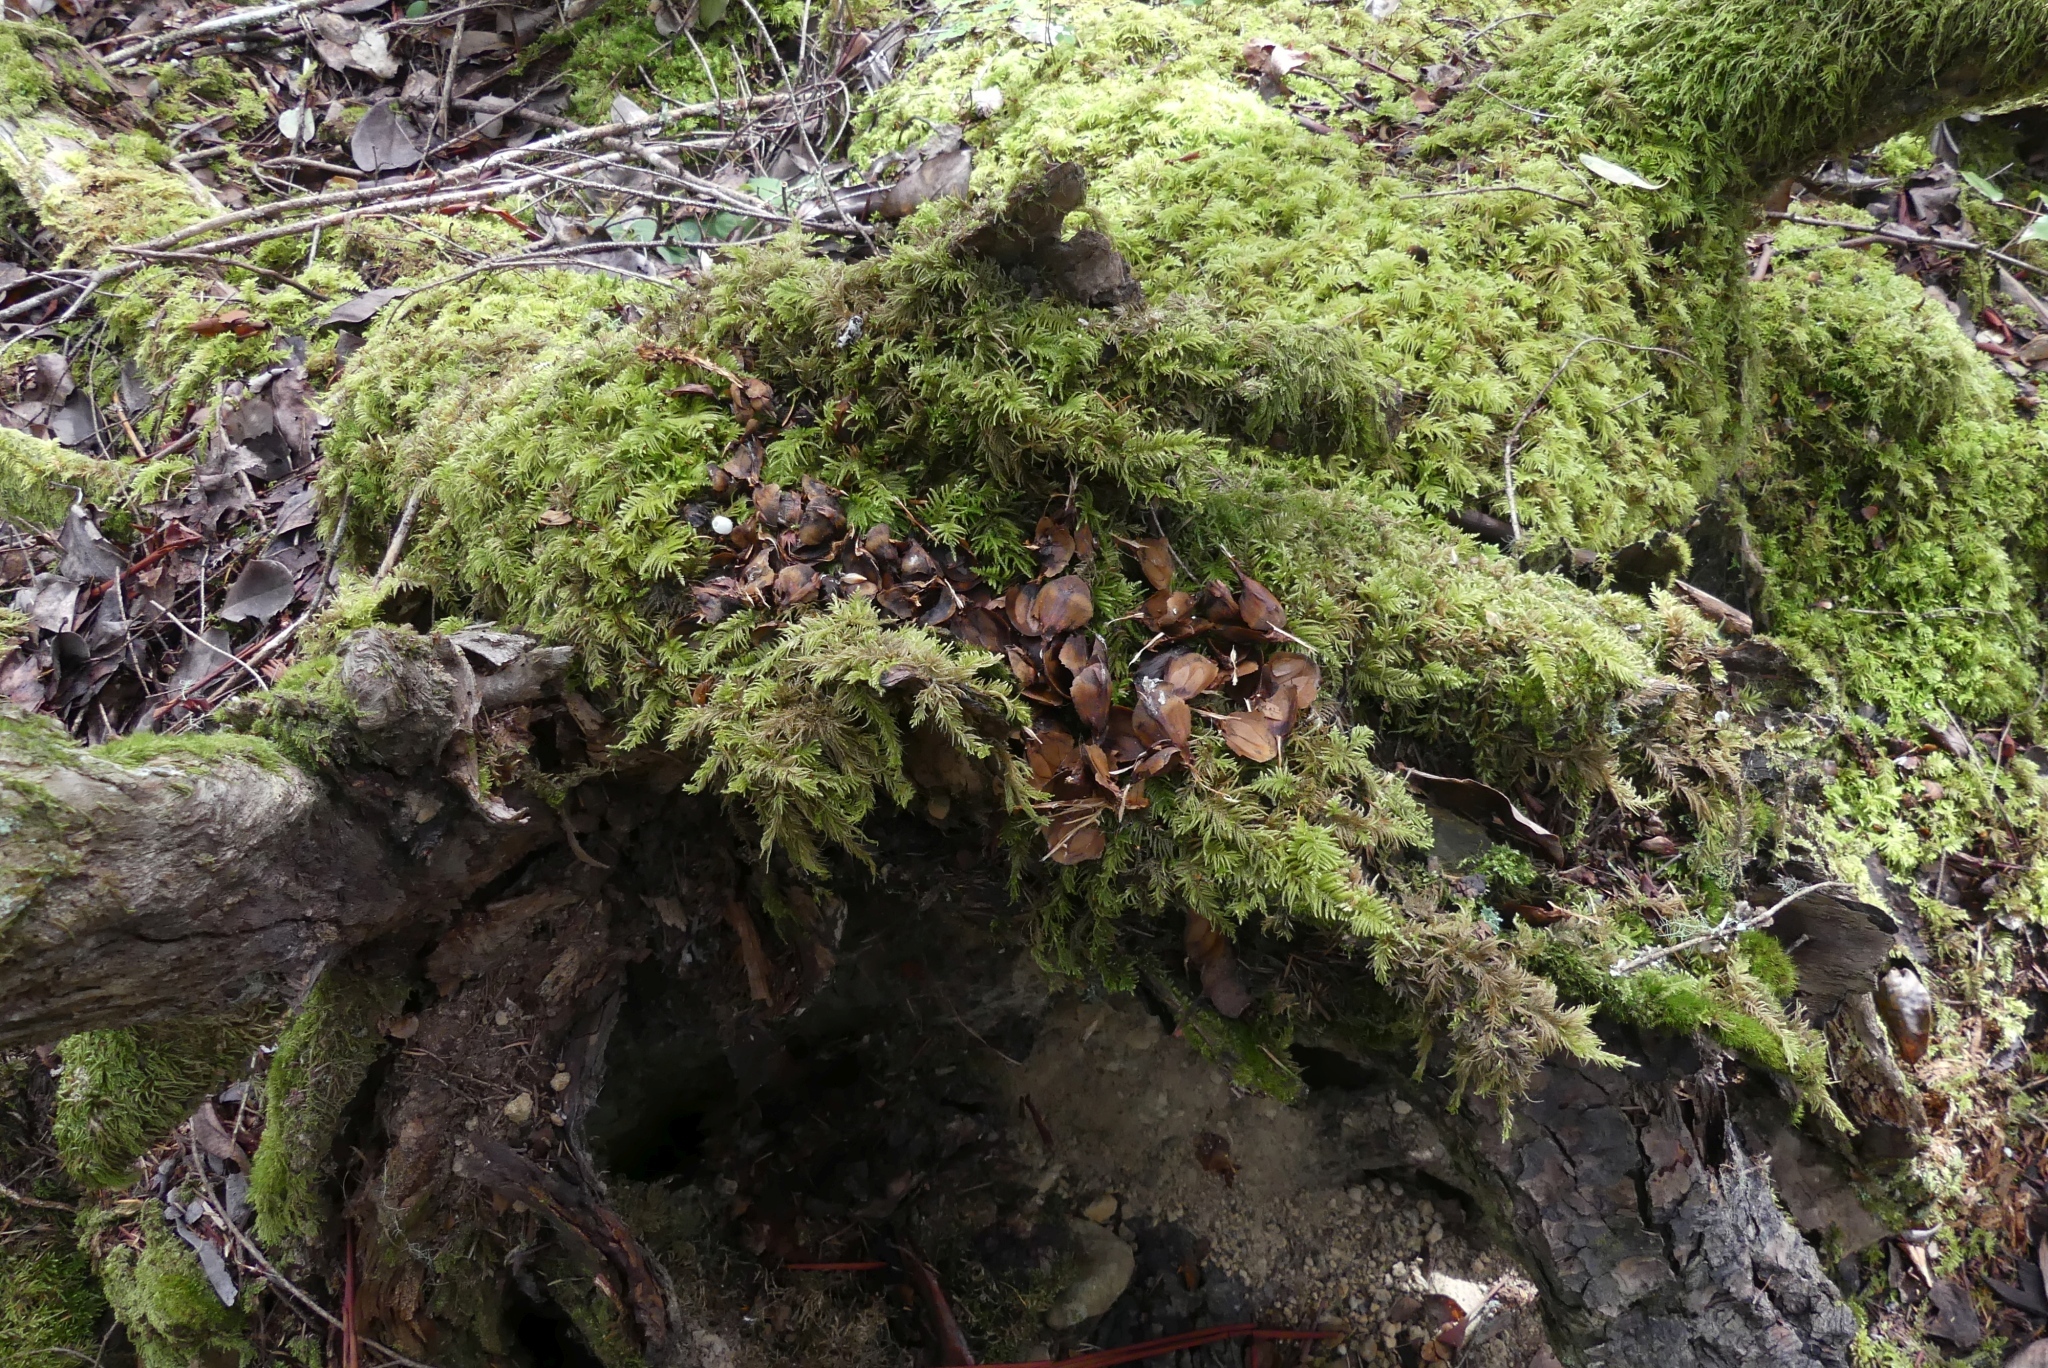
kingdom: Animalia
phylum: Chordata
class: Mammalia
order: Rodentia
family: Sciuridae
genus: Tamiasciurus
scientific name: Tamiasciurus hudsonicus
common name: Red squirrel
